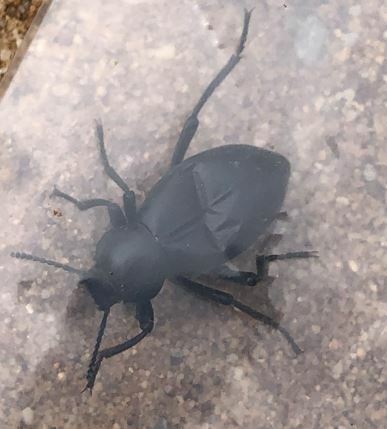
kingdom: Animalia
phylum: Arthropoda
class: Insecta
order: Coleoptera
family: Tenebrionidae
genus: Eleodes
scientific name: Eleodes dentipes
